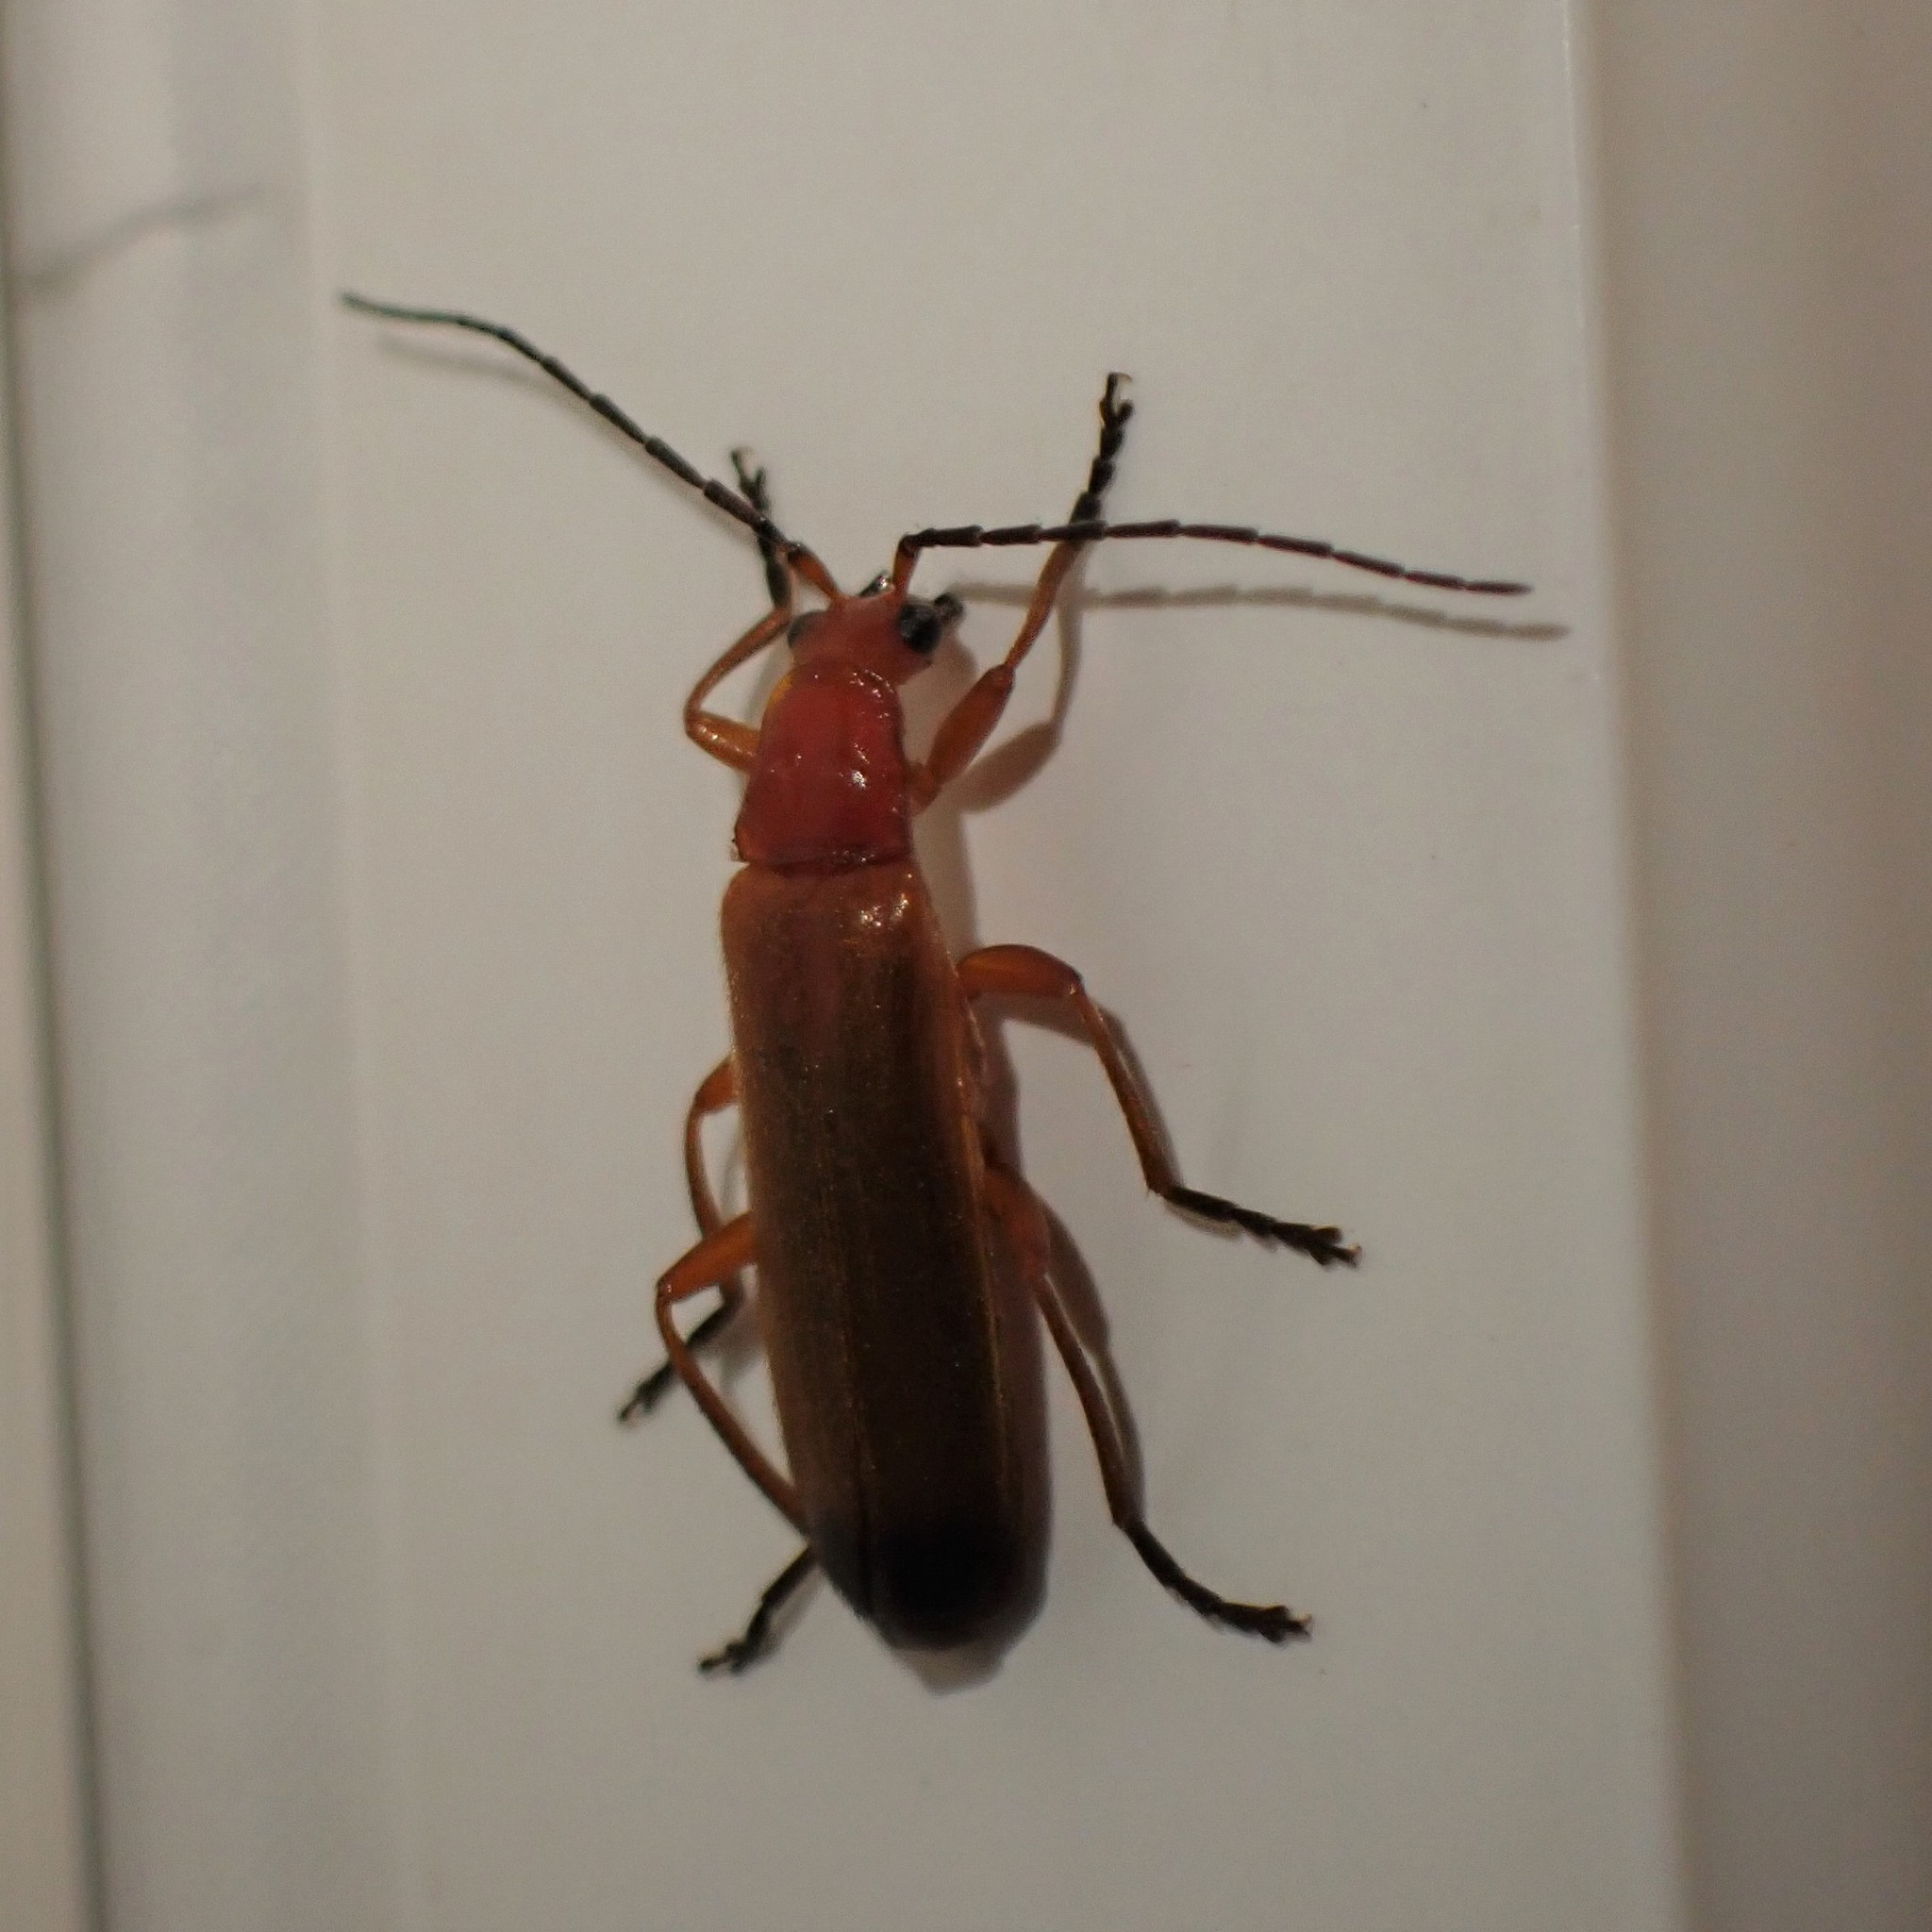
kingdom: Animalia
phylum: Arthropoda
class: Insecta
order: Coleoptera
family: Cantharidae
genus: Rhagonycha
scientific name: Rhagonycha fulva
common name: Common red soldier beetle
